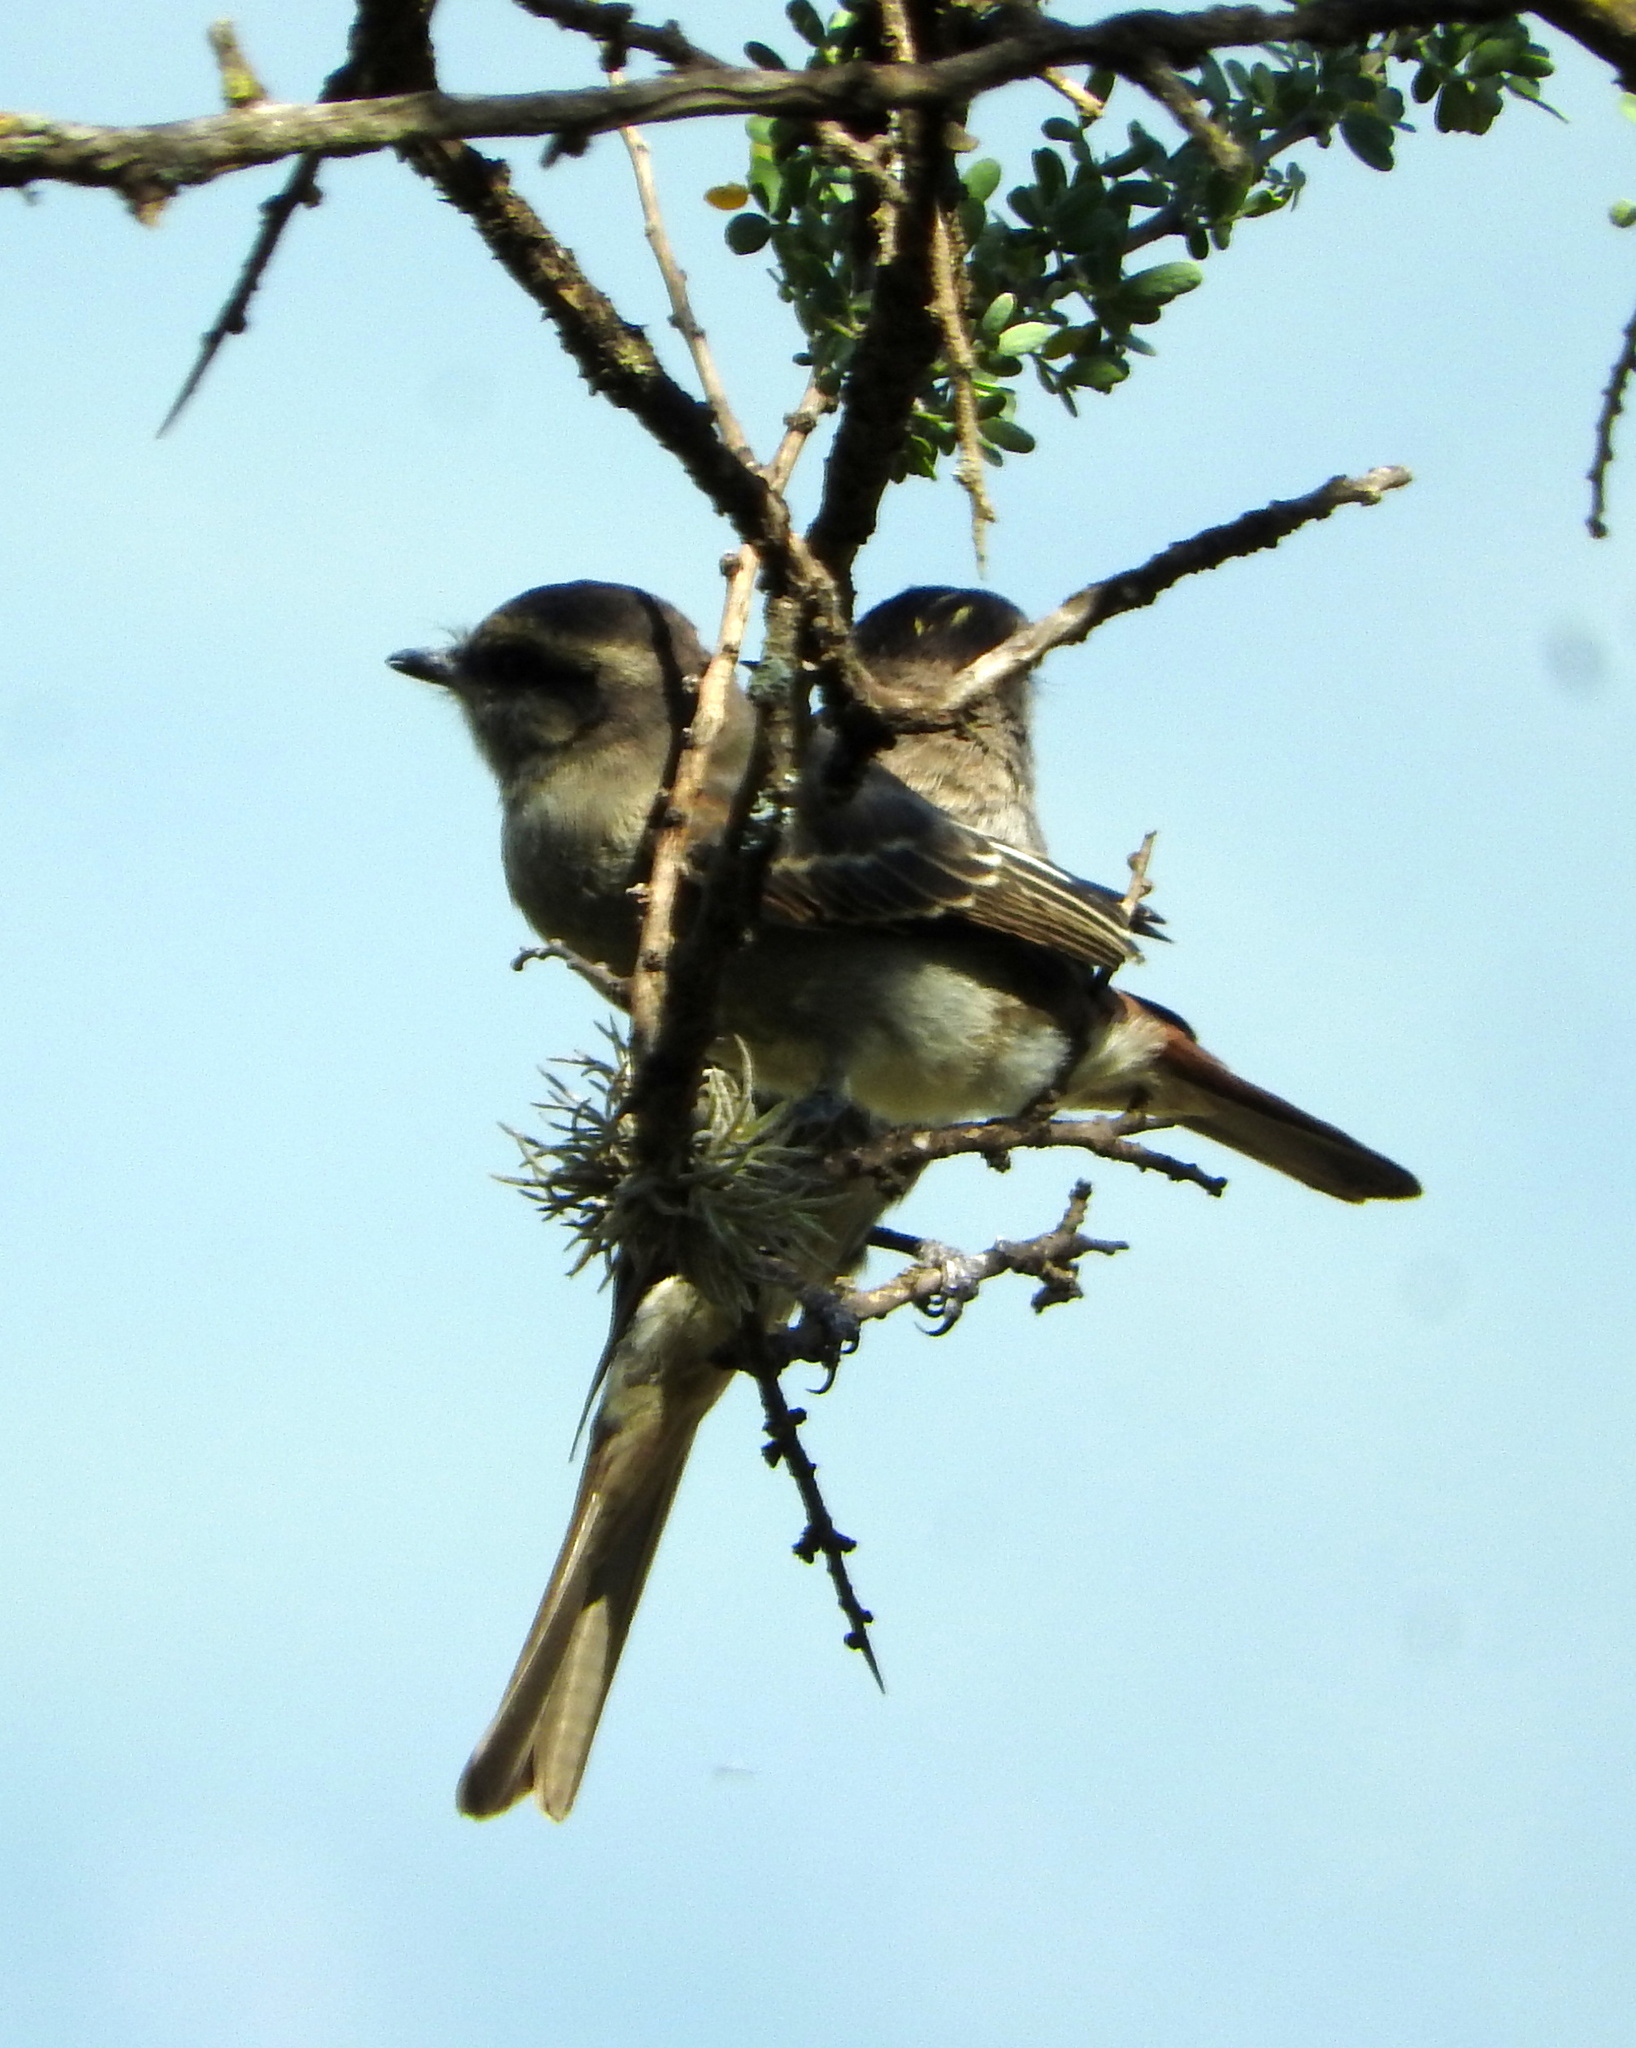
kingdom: Animalia
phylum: Chordata
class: Aves
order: Passeriformes
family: Tyrannidae
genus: Empidonomus
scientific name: Empidonomus aurantioatrocristatus
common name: Crowned slaty flycatcher
